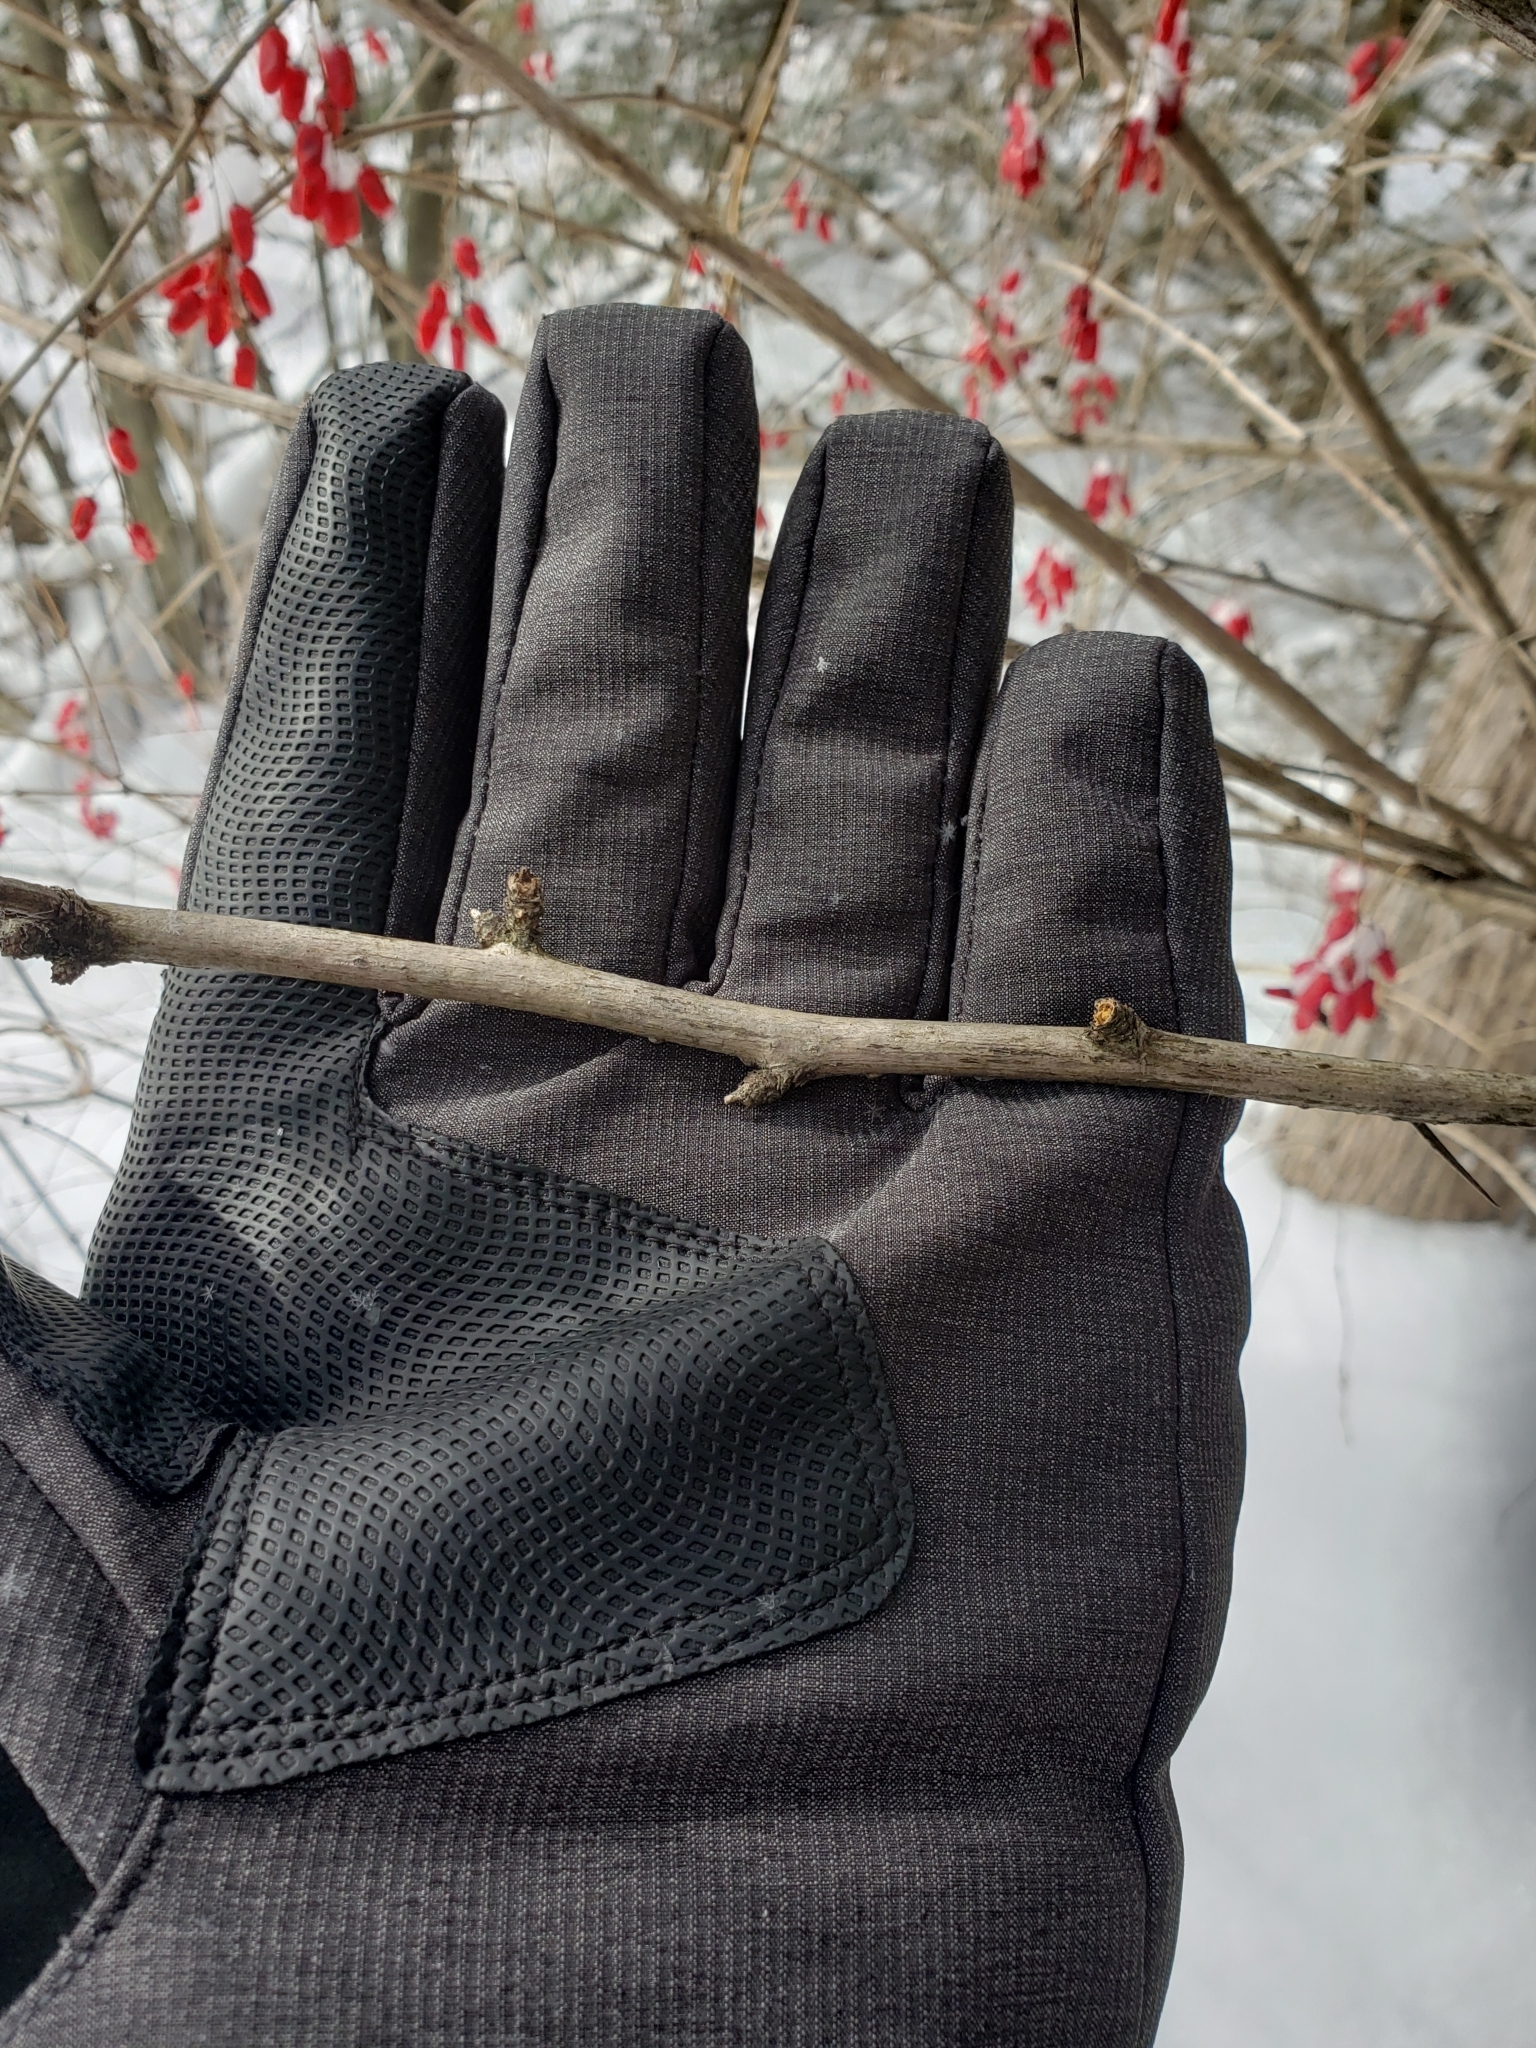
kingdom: Plantae
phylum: Tracheophyta
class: Magnoliopsida
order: Ranunculales
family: Berberidaceae
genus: Berberis
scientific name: Berberis vulgaris
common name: Barberry
